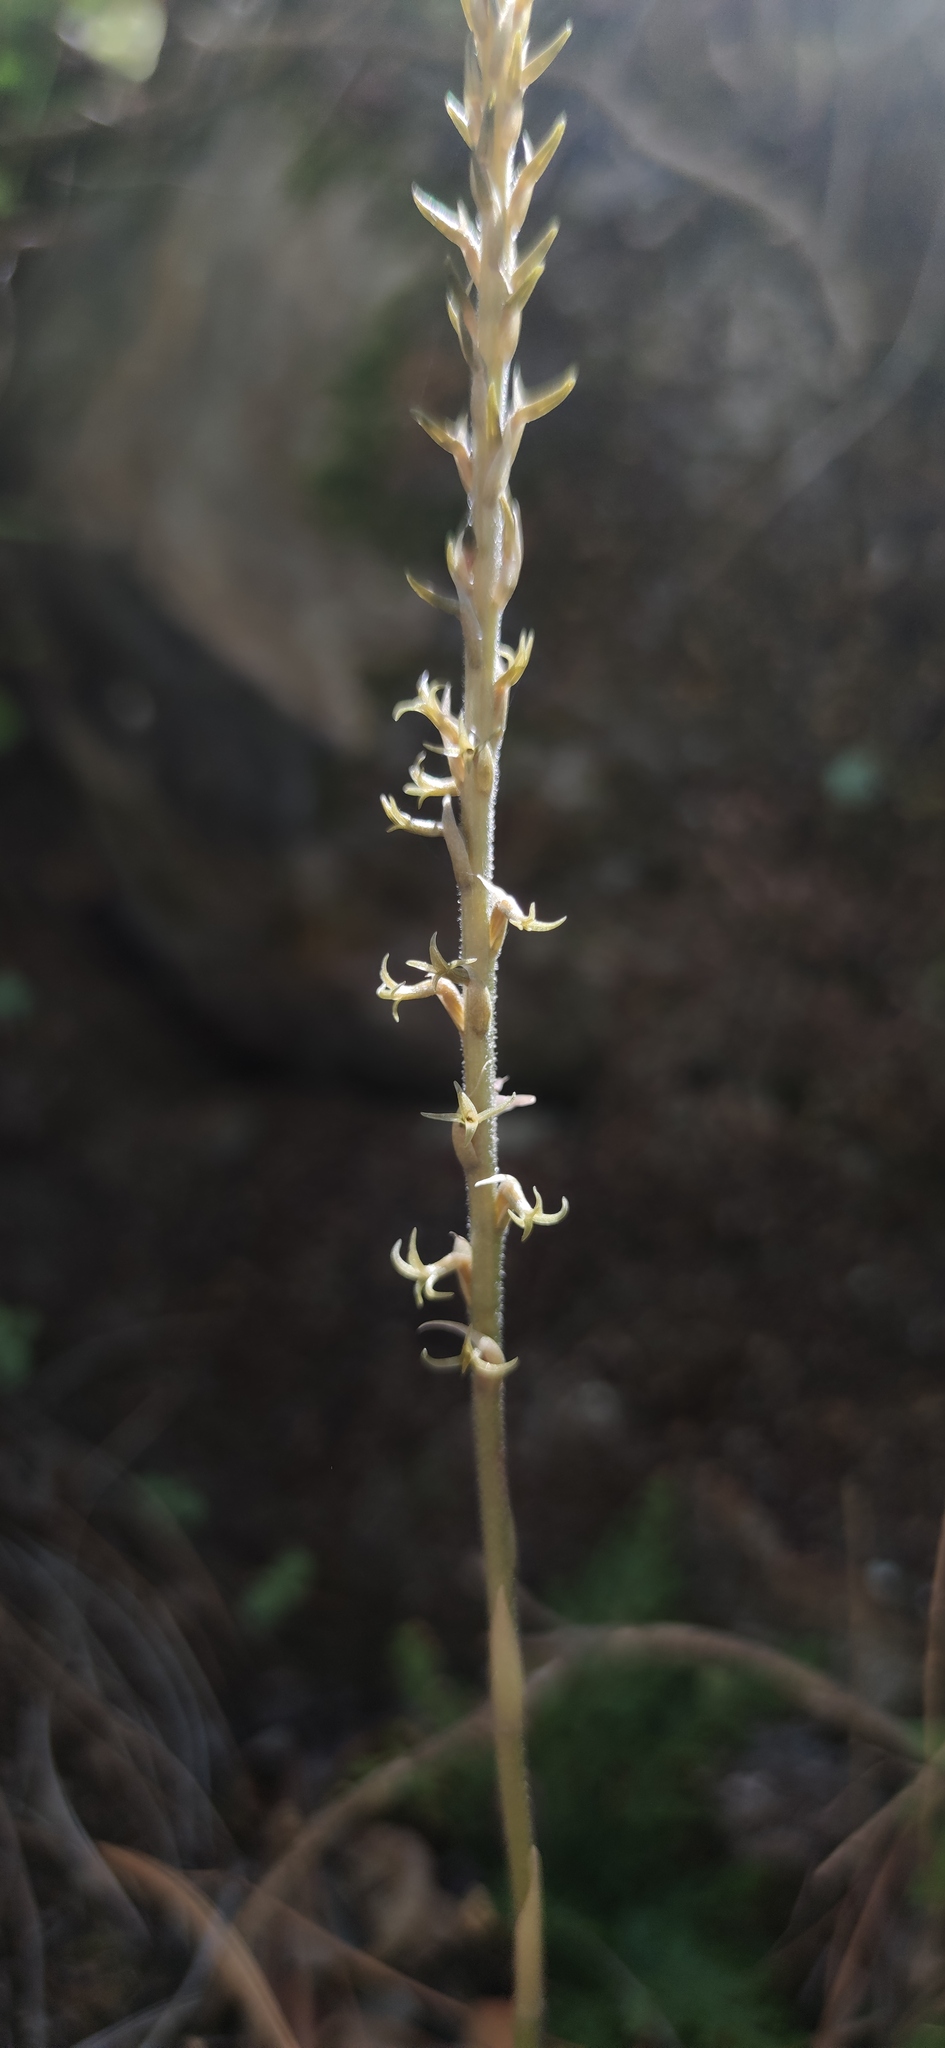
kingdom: Plantae
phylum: Tracheophyta
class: Liliopsida
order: Asparagales
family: Orchidaceae
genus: Mesadenus
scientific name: Mesadenus polyanthus
